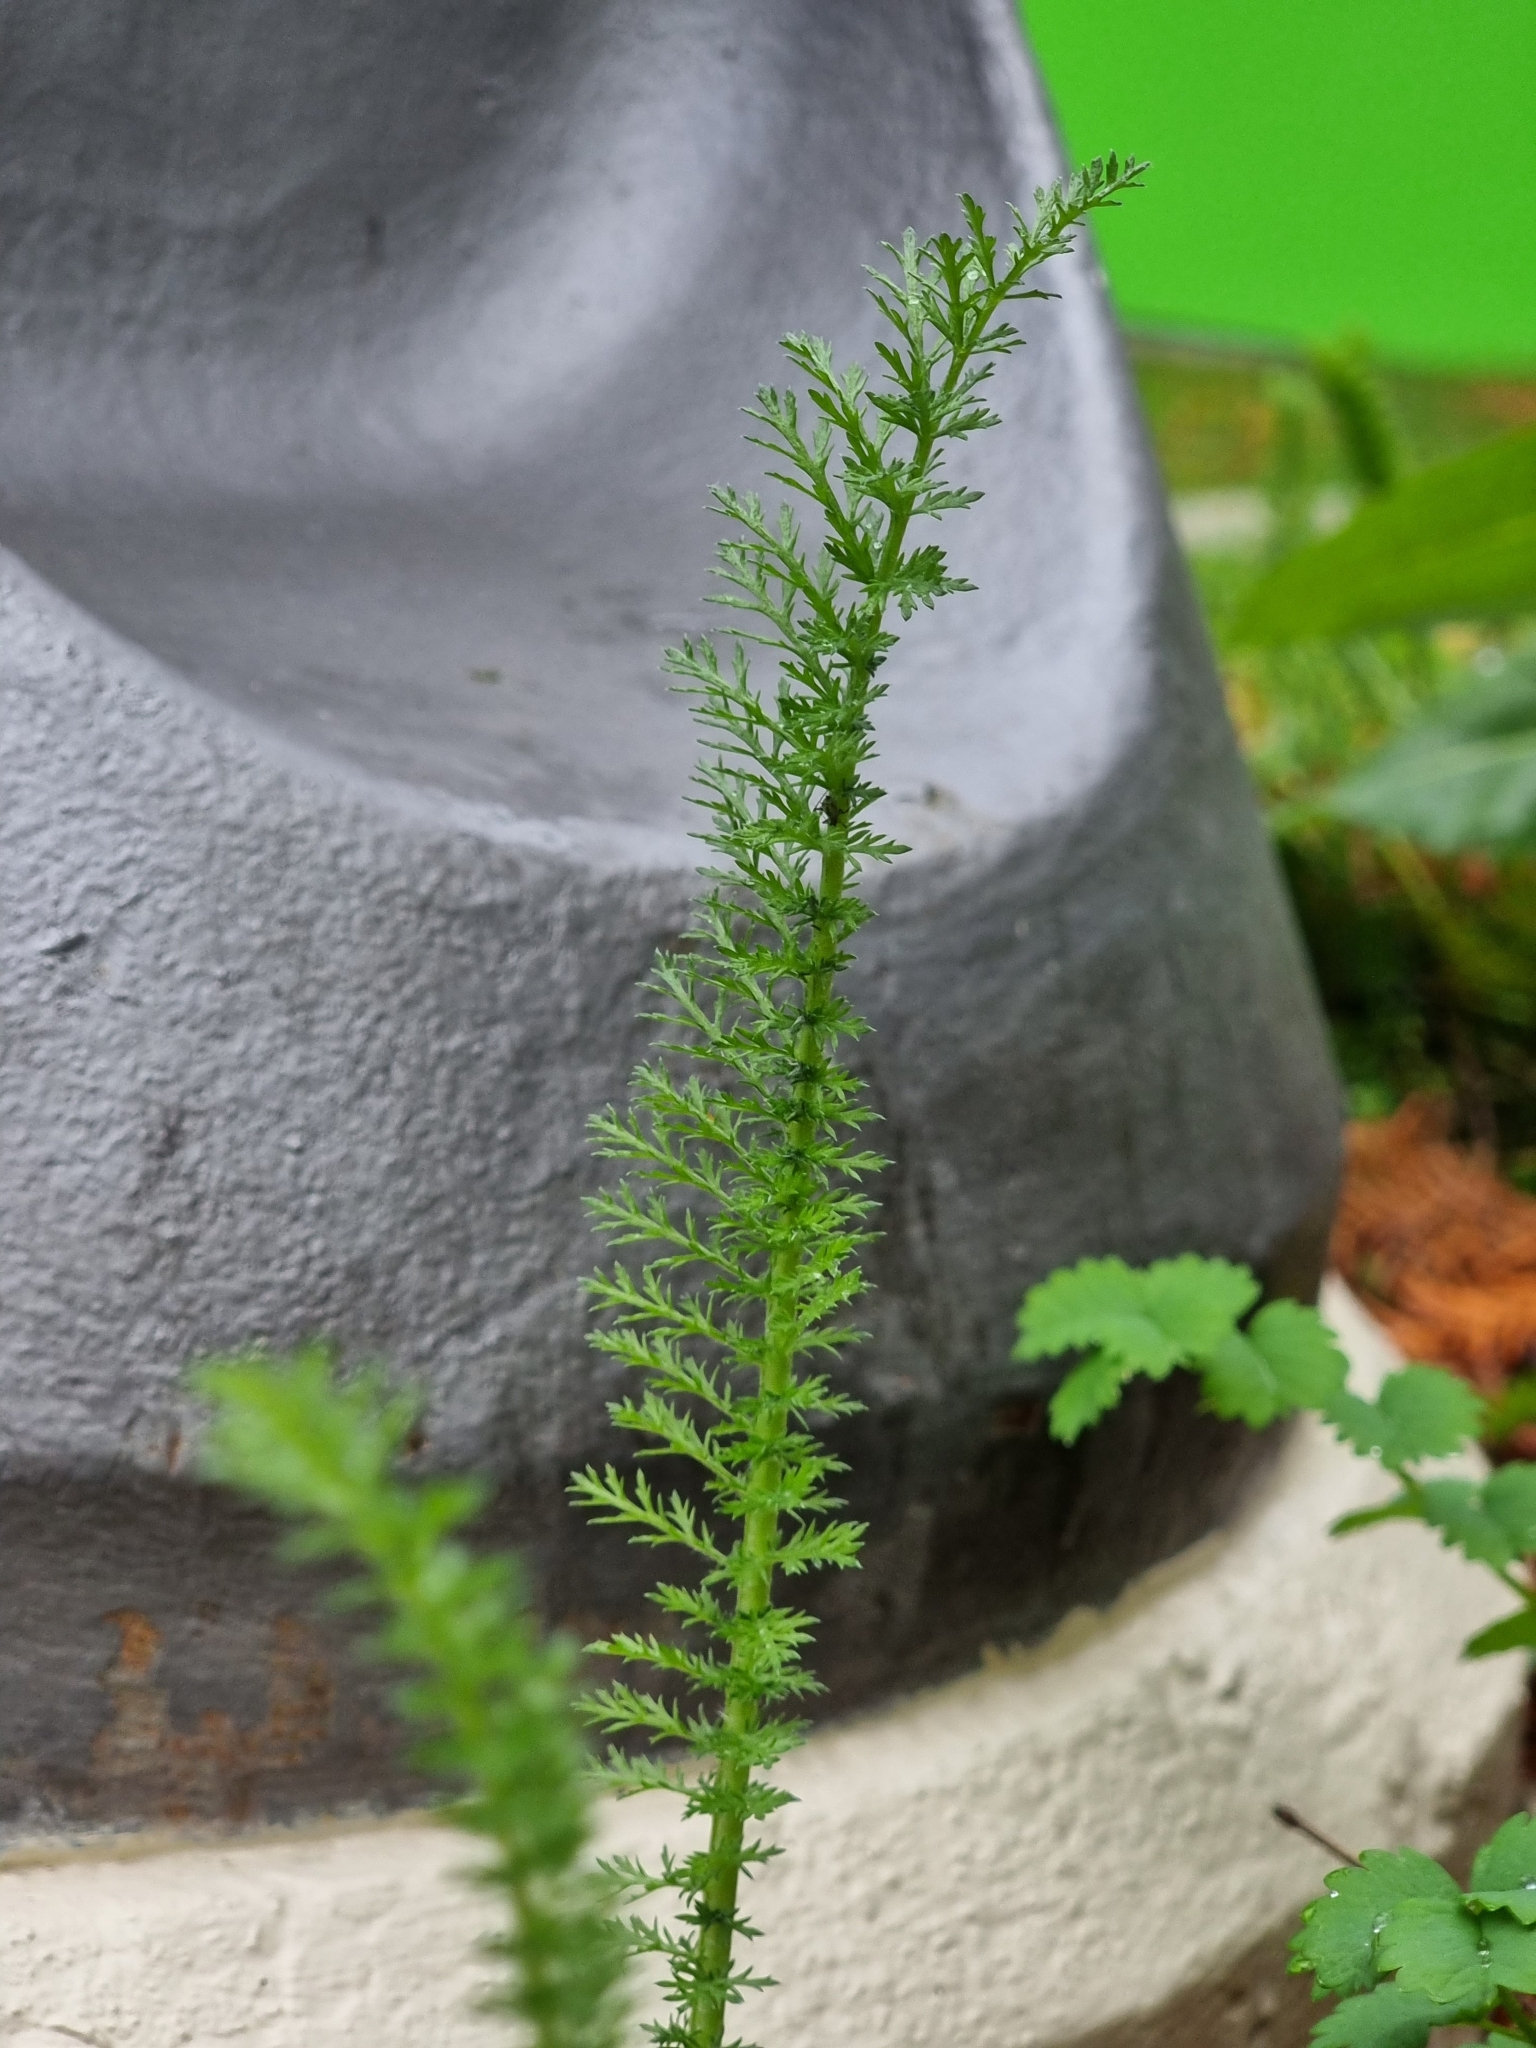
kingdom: Plantae
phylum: Tracheophyta
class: Magnoliopsida
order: Asterales
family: Asteraceae
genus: Achillea
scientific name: Achillea millefolium
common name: Yarrow
